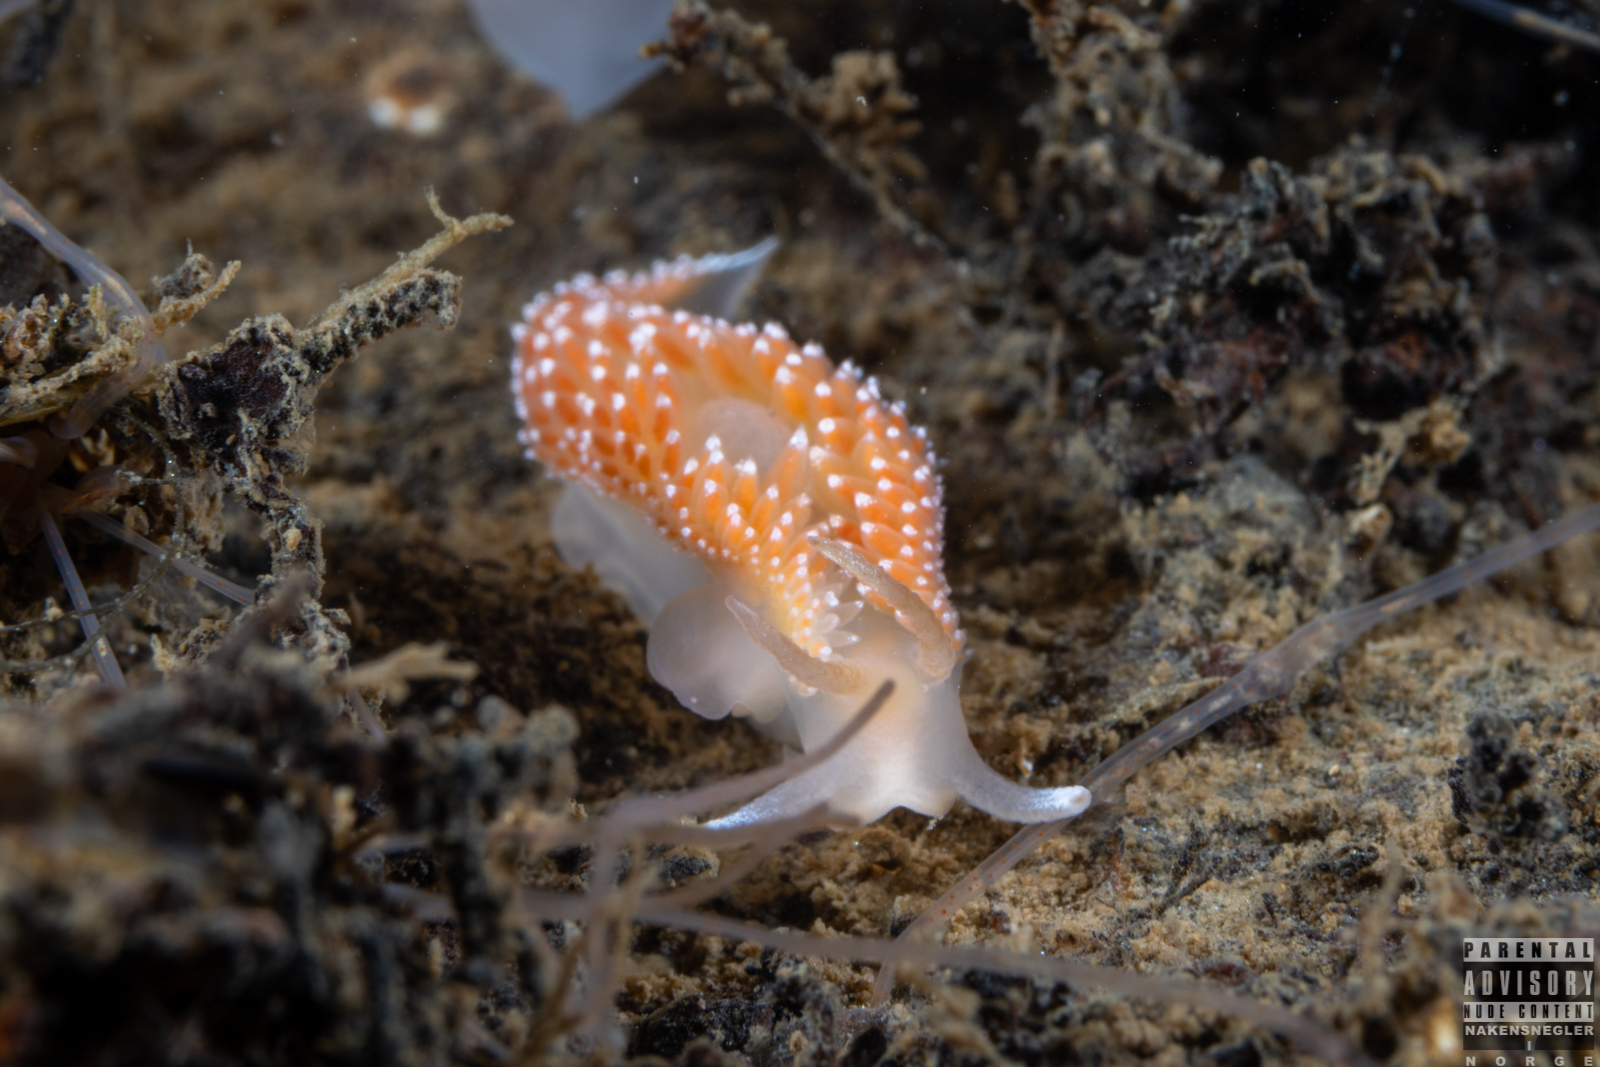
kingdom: Animalia
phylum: Mollusca
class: Gastropoda
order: Nudibranchia
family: Coryphellidae
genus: Coryphella
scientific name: Coryphella borealis
